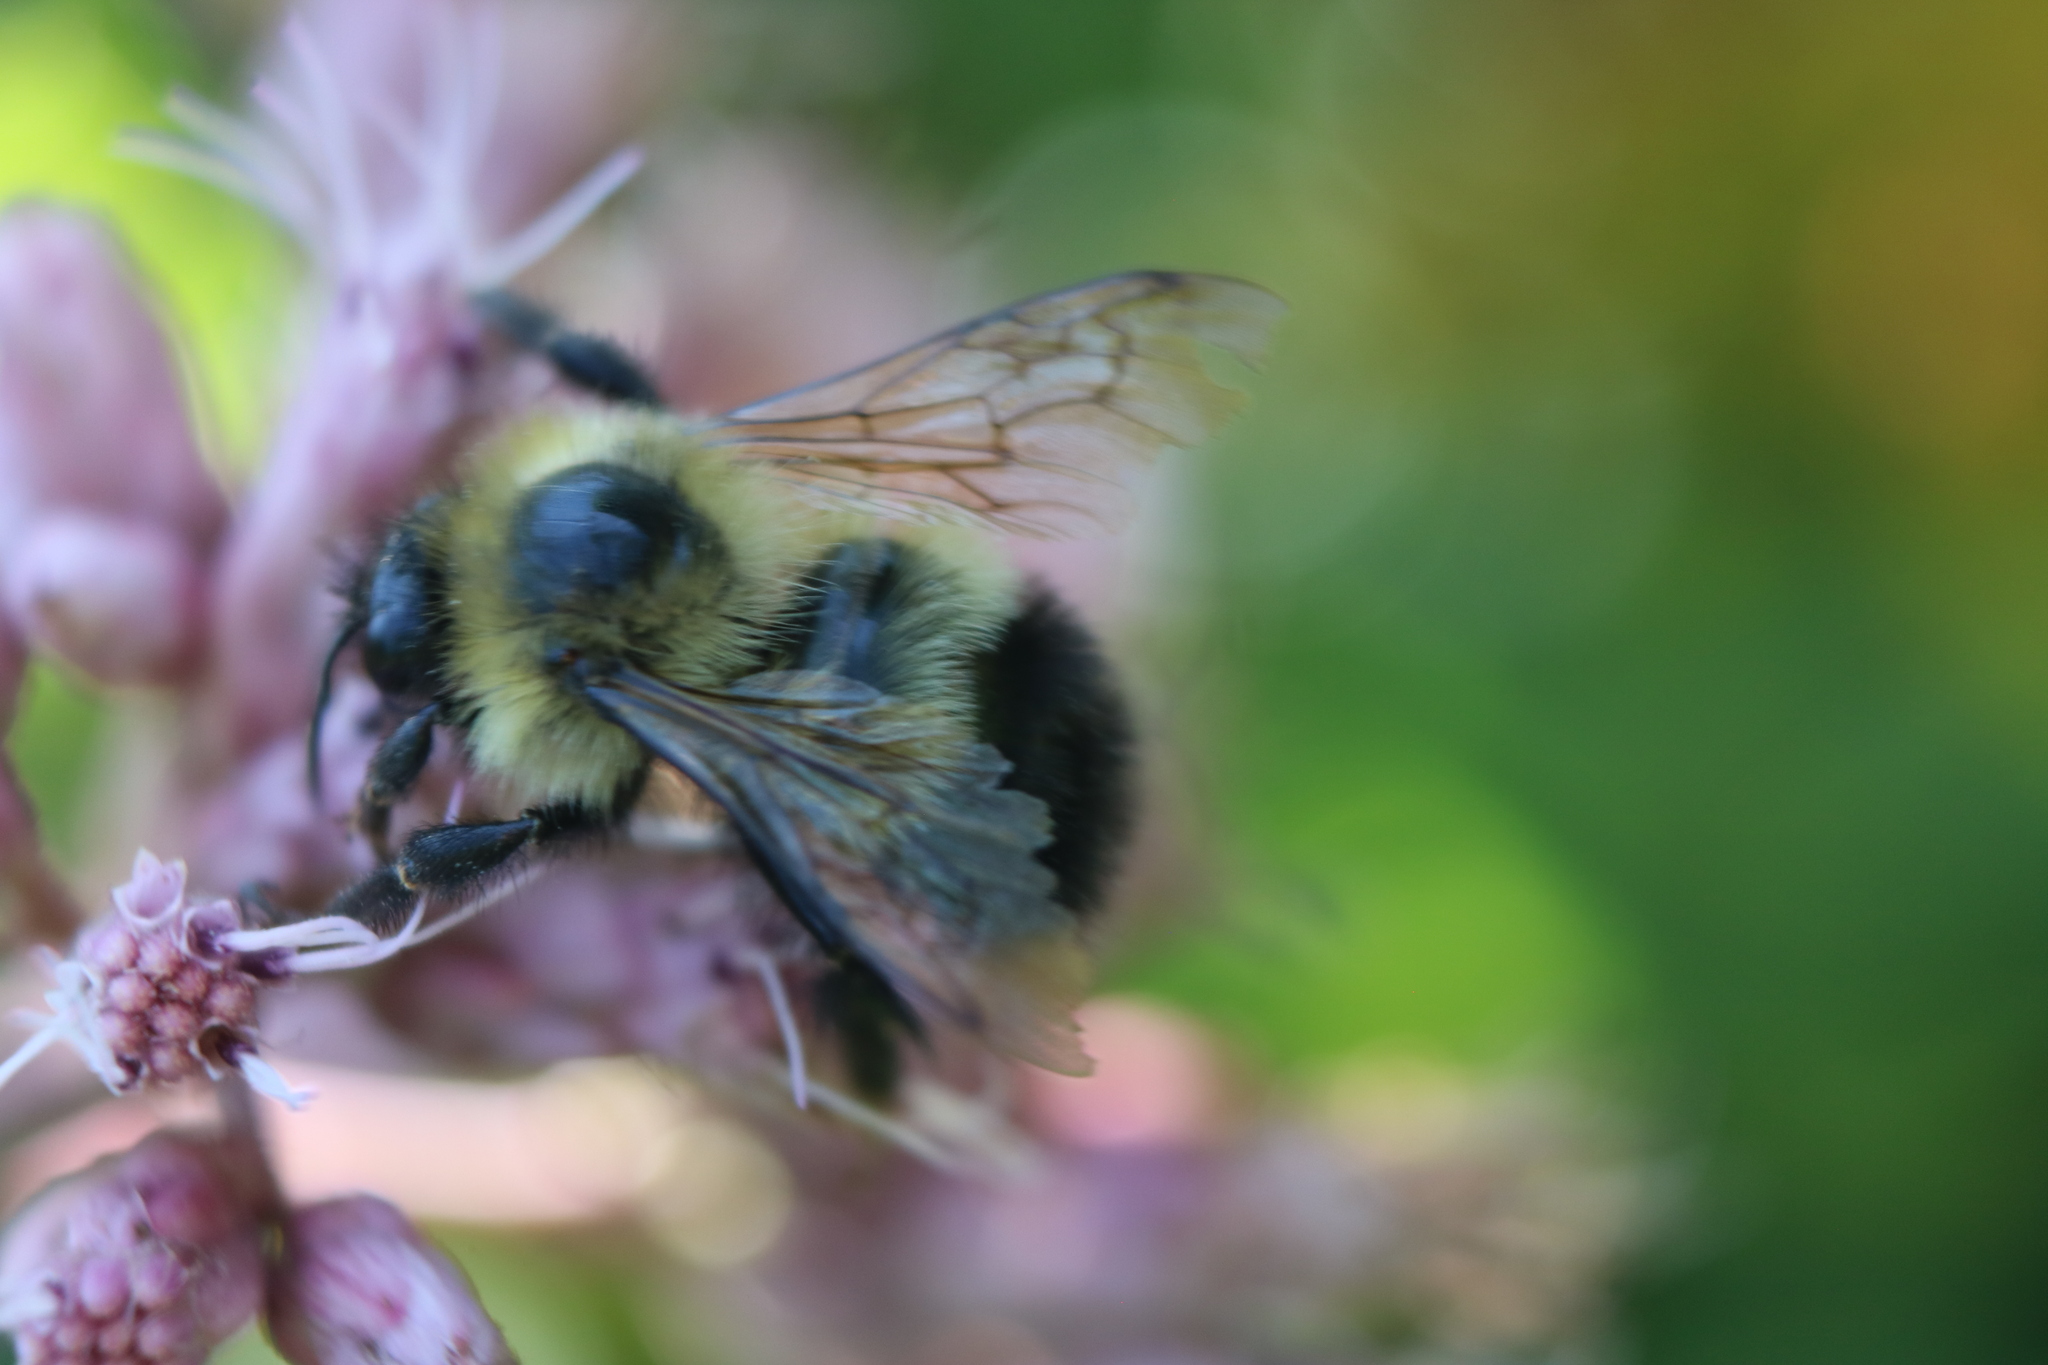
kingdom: Animalia
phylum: Arthropoda
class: Insecta
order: Hymenoptera
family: Apidae
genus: Pyrobombus
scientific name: Pyrobombus
